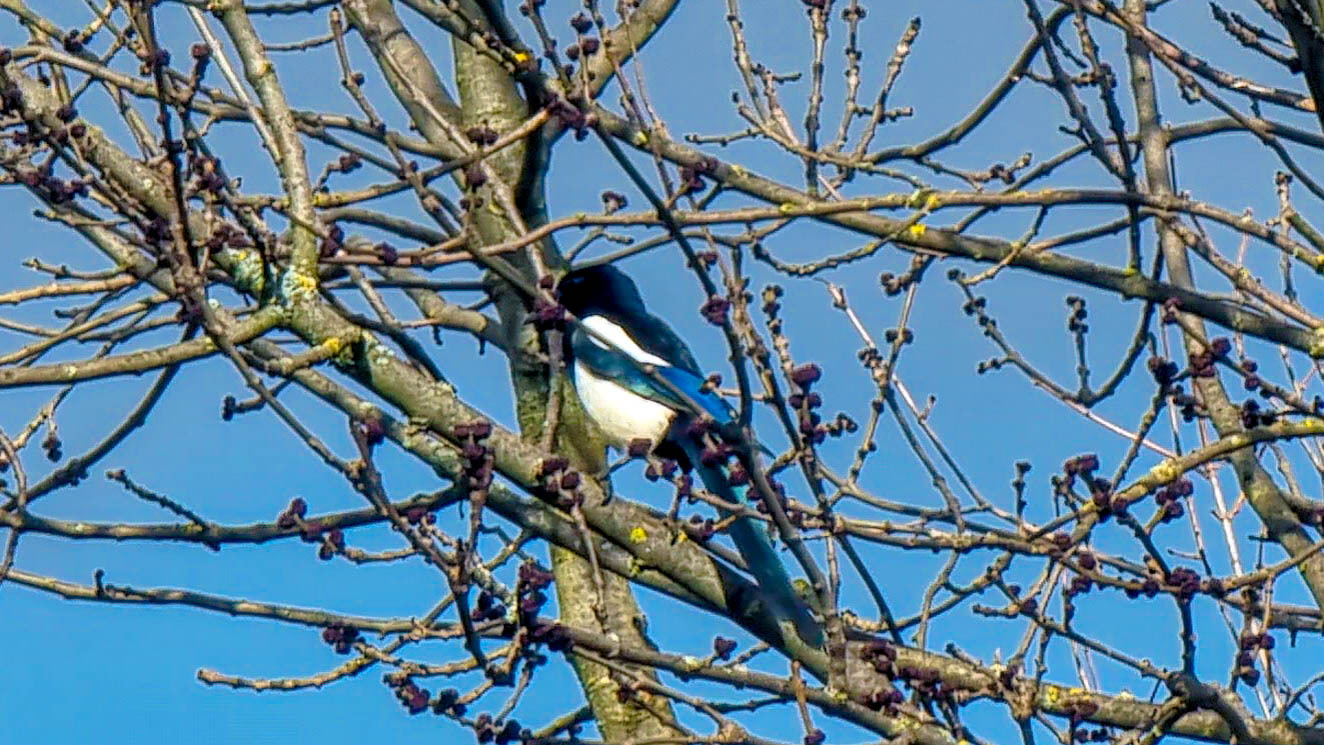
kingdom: Animalia
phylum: Chordata
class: Aves
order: Passeriformes
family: Corvidae
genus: Pica
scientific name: Pica pica
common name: Eurasian magpie
